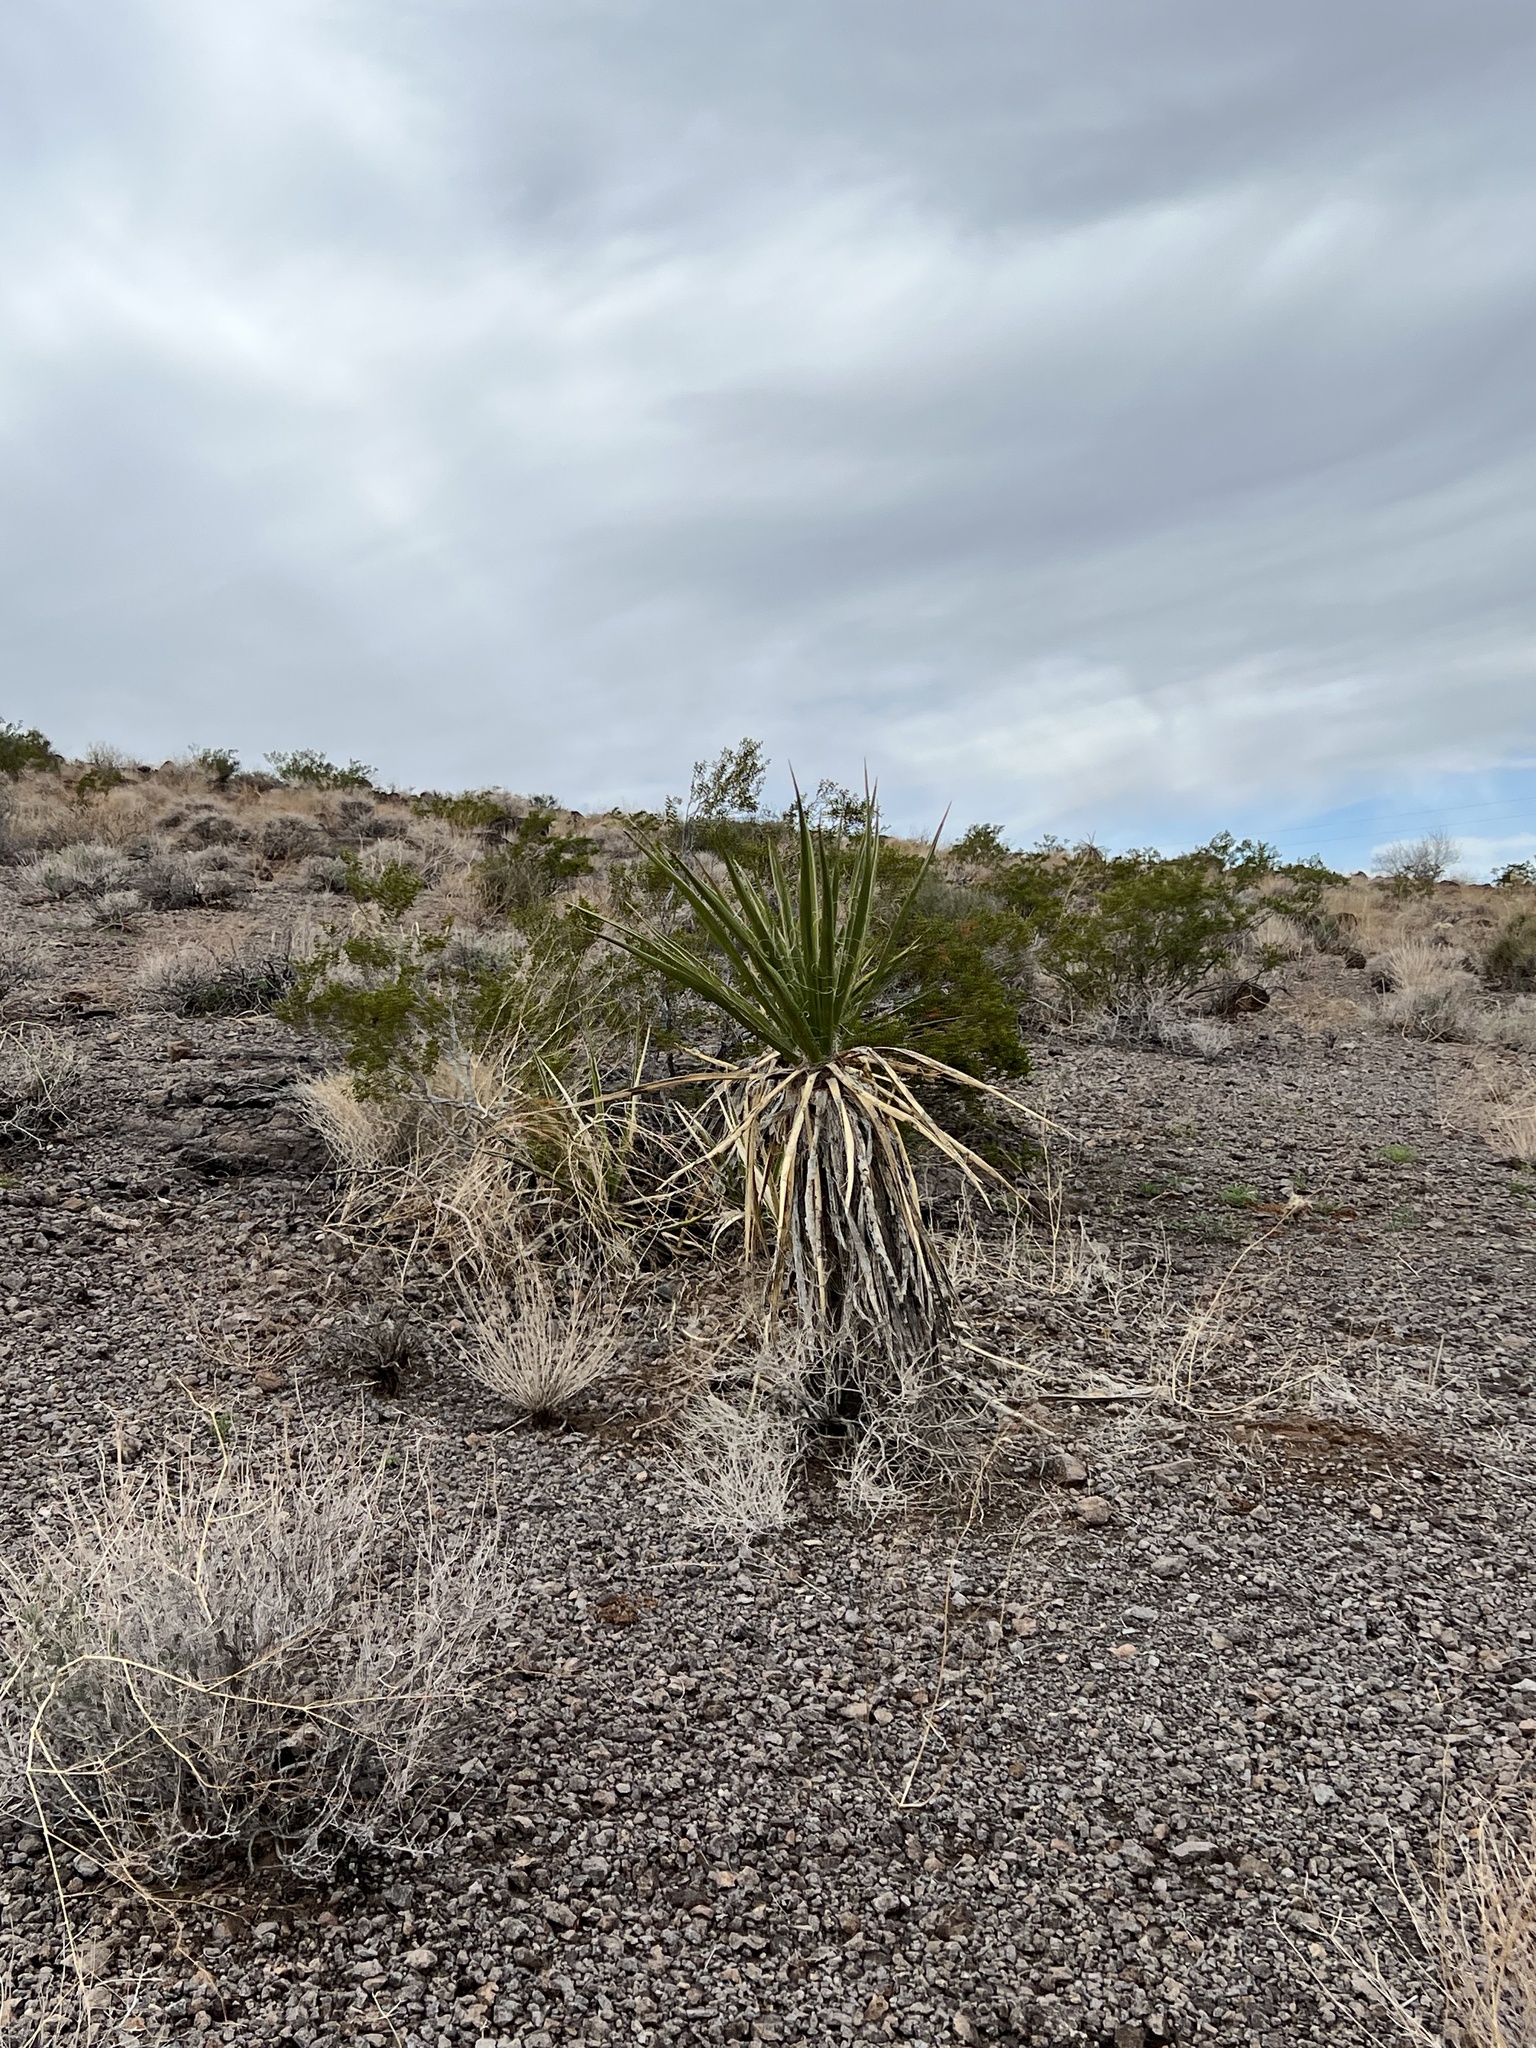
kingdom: Plantae
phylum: Tracheophyta
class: Liliopsida
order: Asparagales
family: Asparagaceae
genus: Yucca
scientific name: Yucca schidigera
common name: Mojave yucca
